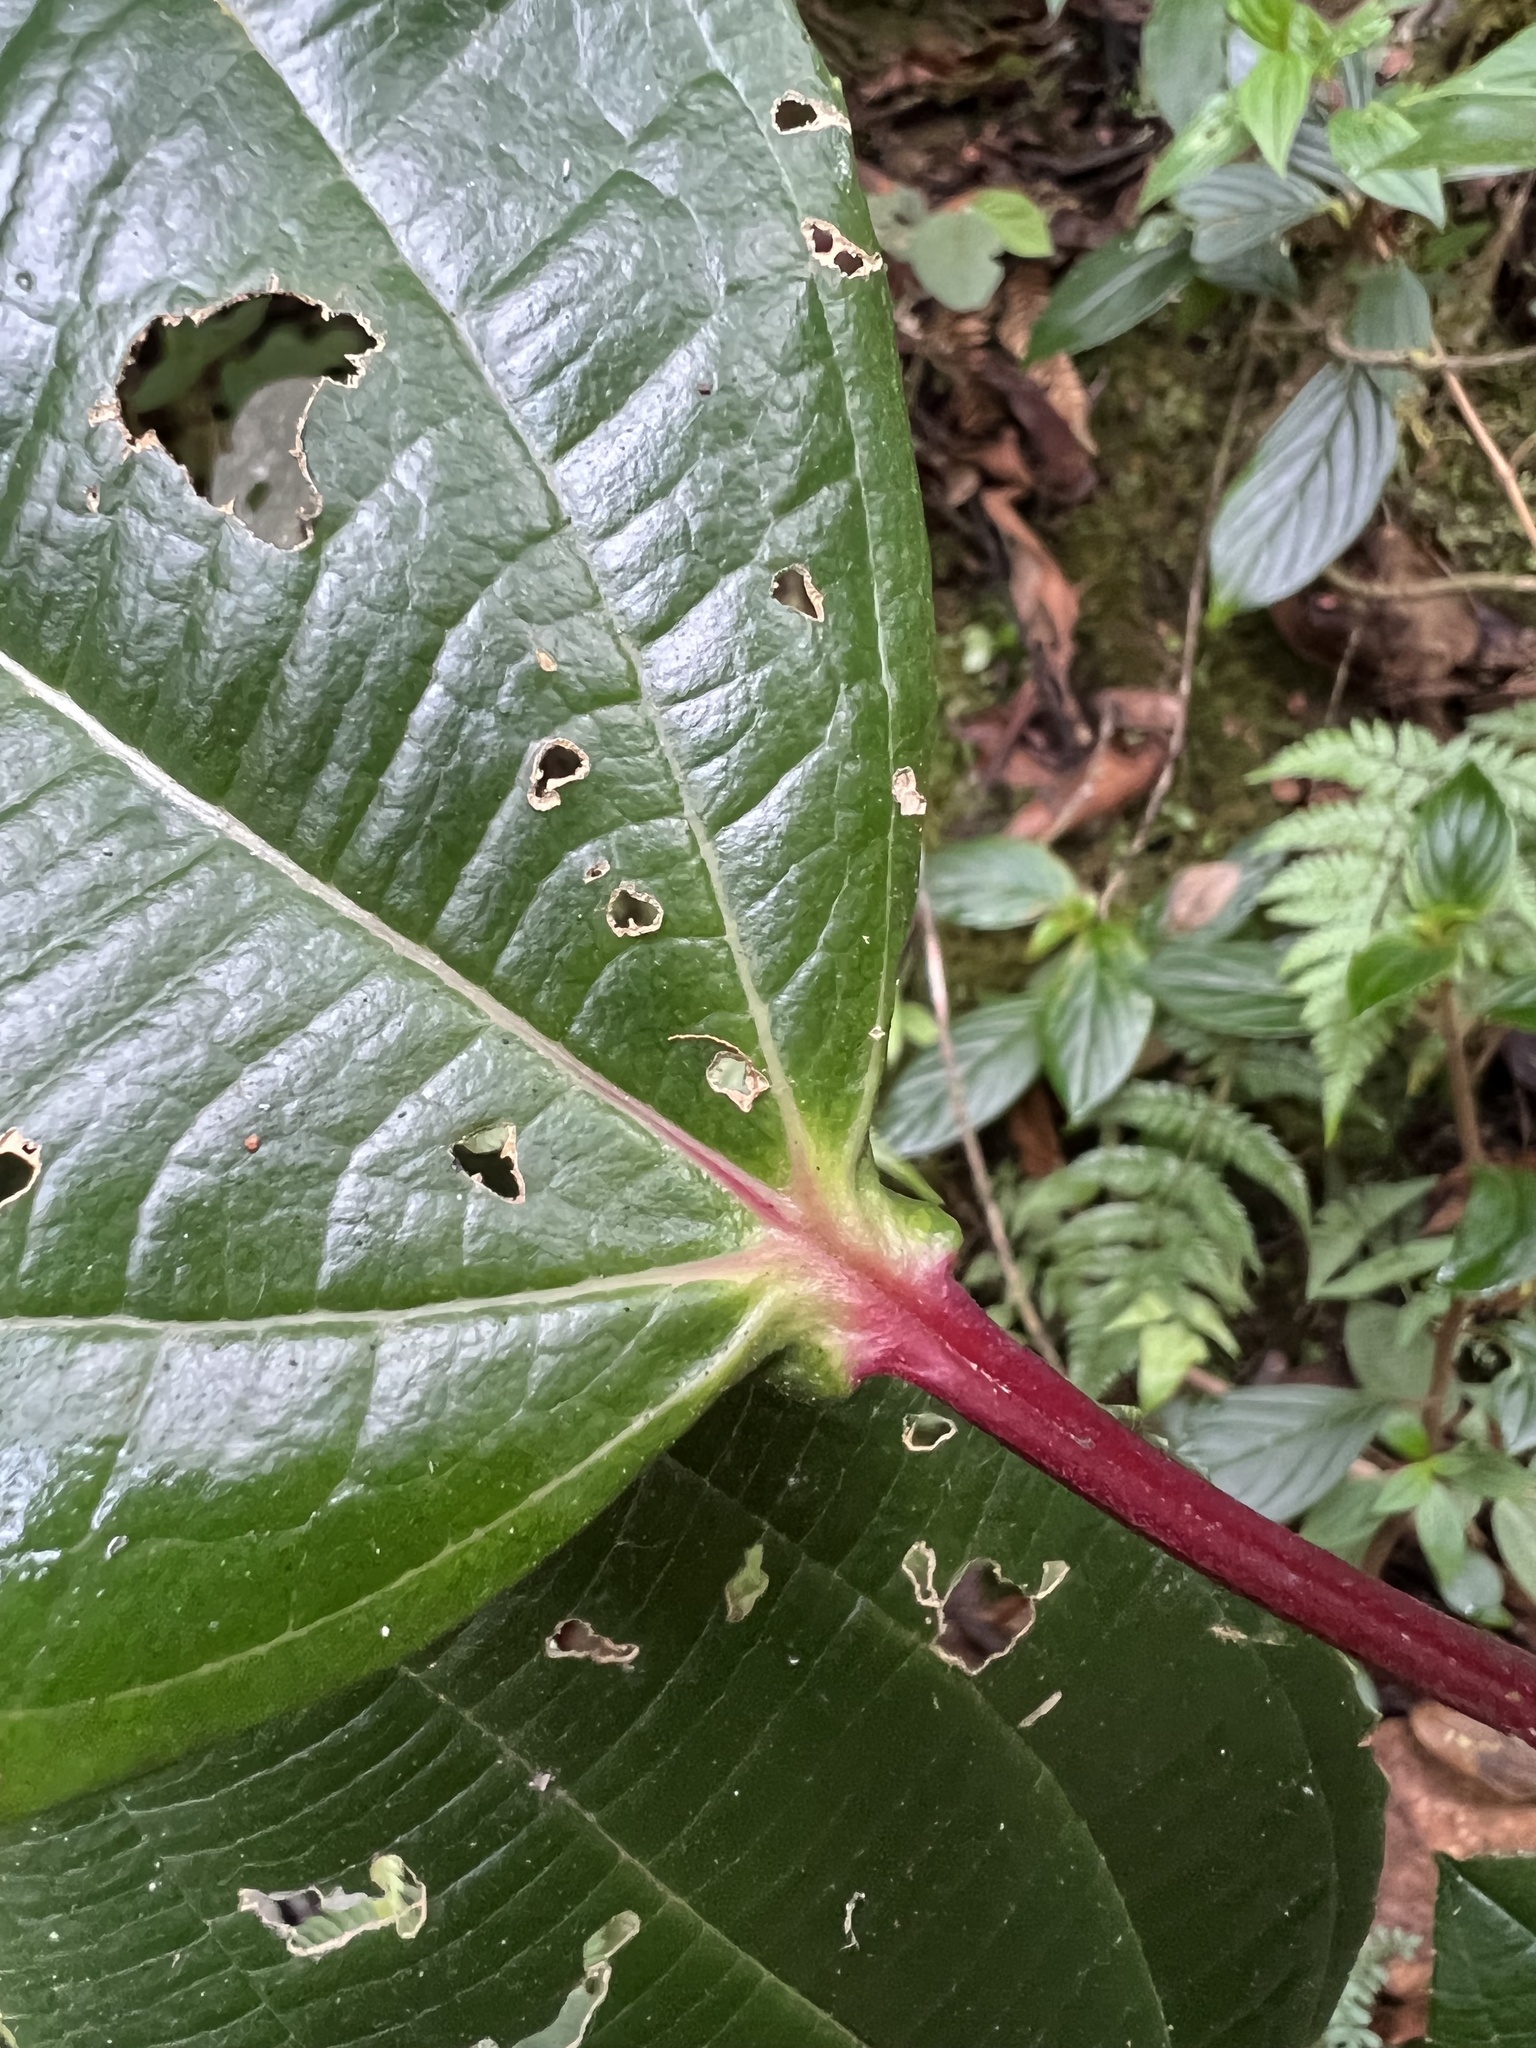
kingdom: Plantae
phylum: Tracheophyta
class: Magnoliopsida
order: Myrtales
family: Melastomataceae
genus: Axinaea
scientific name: Axinaea macrophylla
